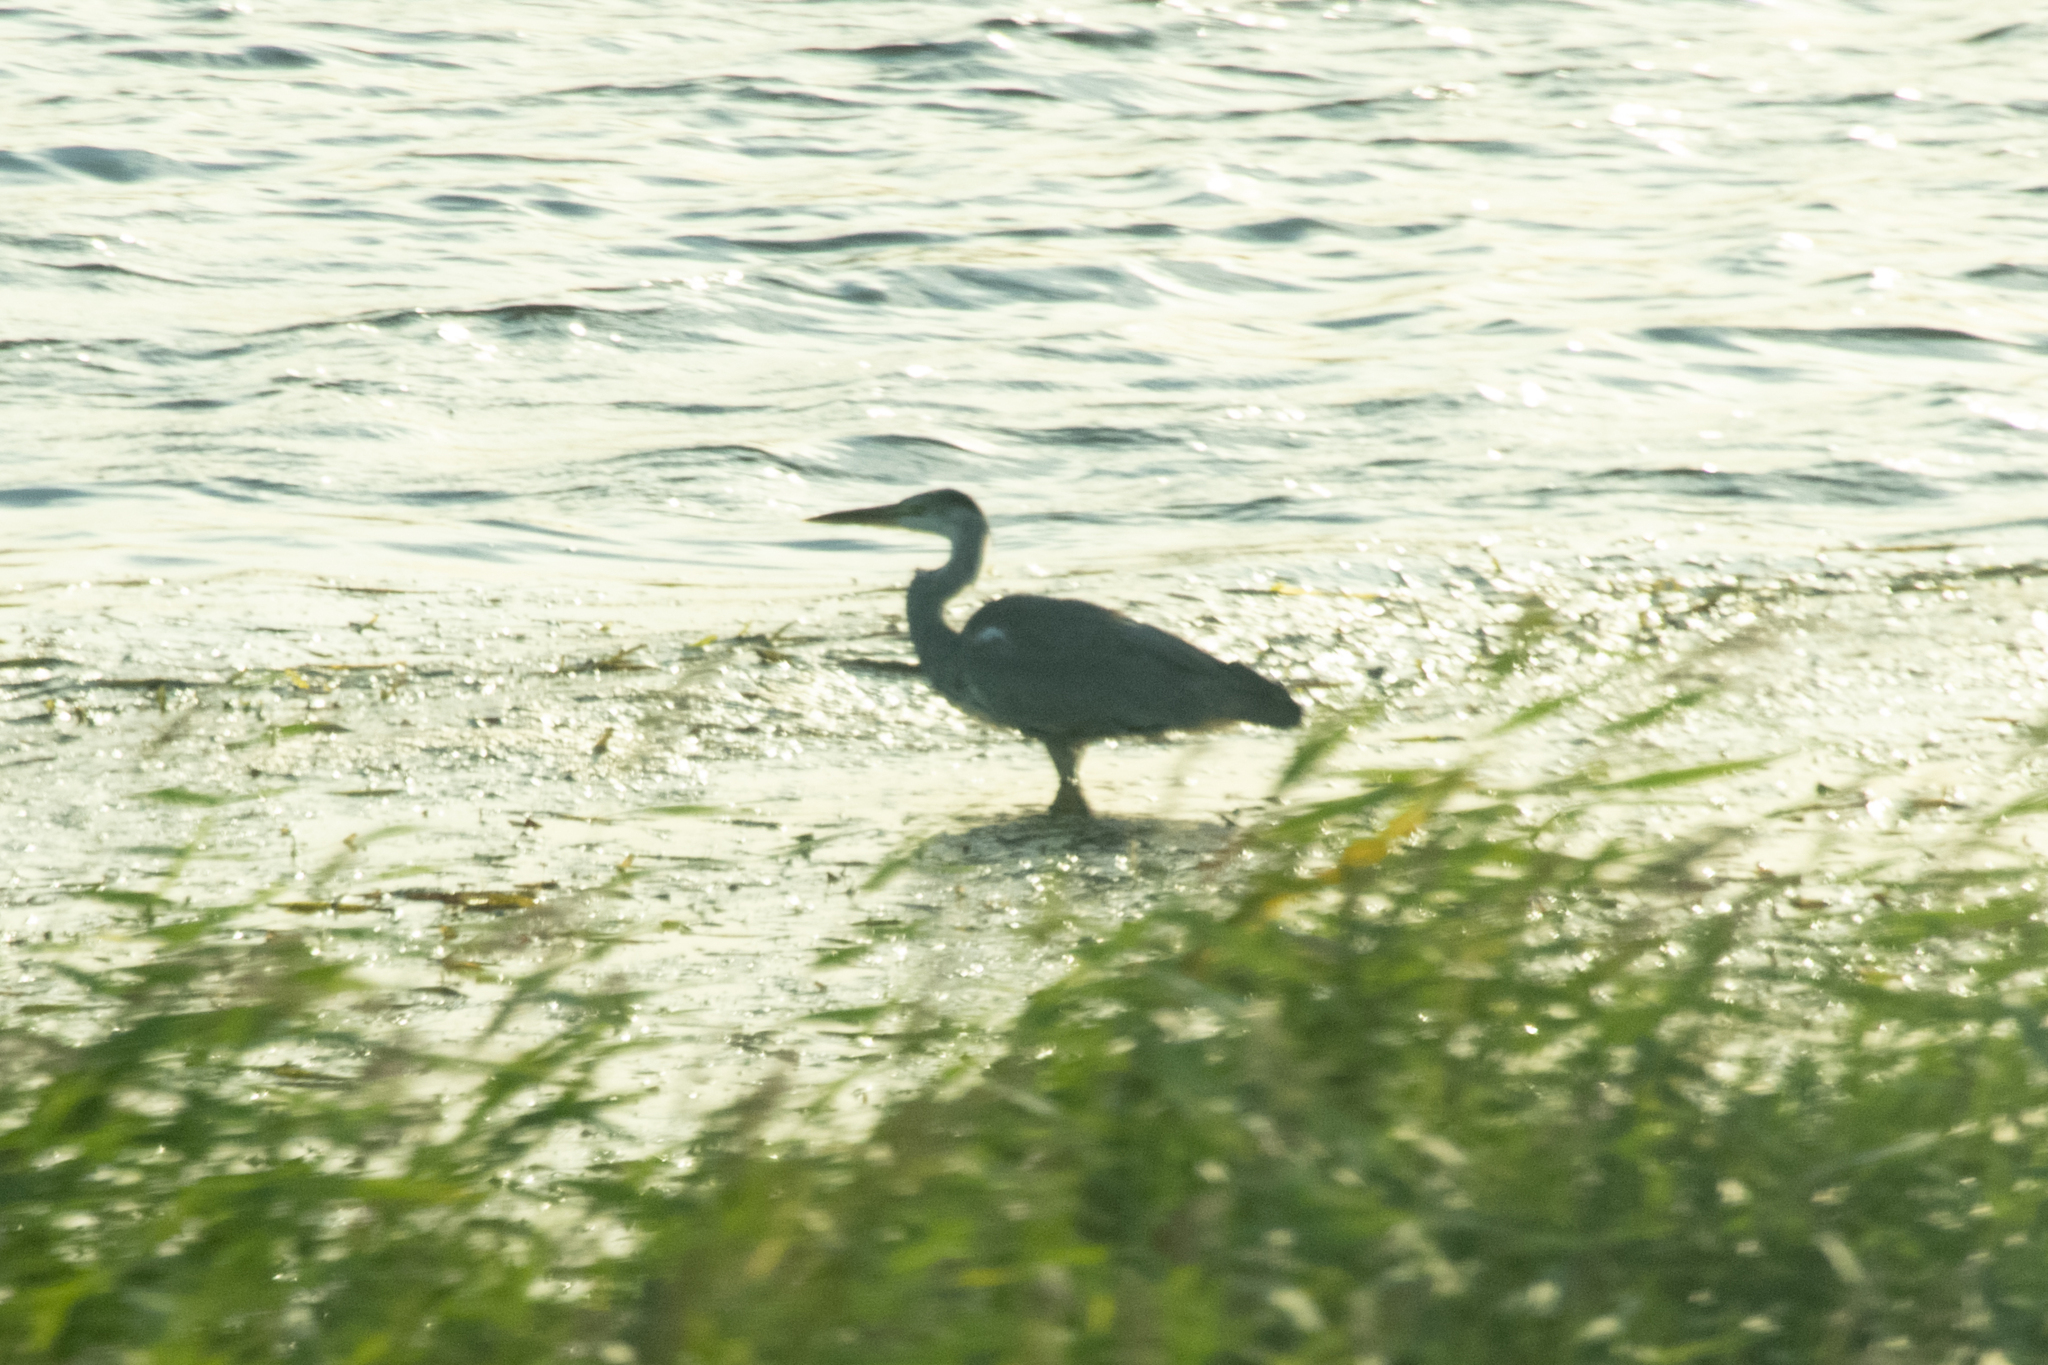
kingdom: Animalia
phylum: Chordata
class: Aves
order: Pelecaniformes
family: Ardeidae
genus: Ardea
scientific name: Ardea cinerea
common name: Grey heron
